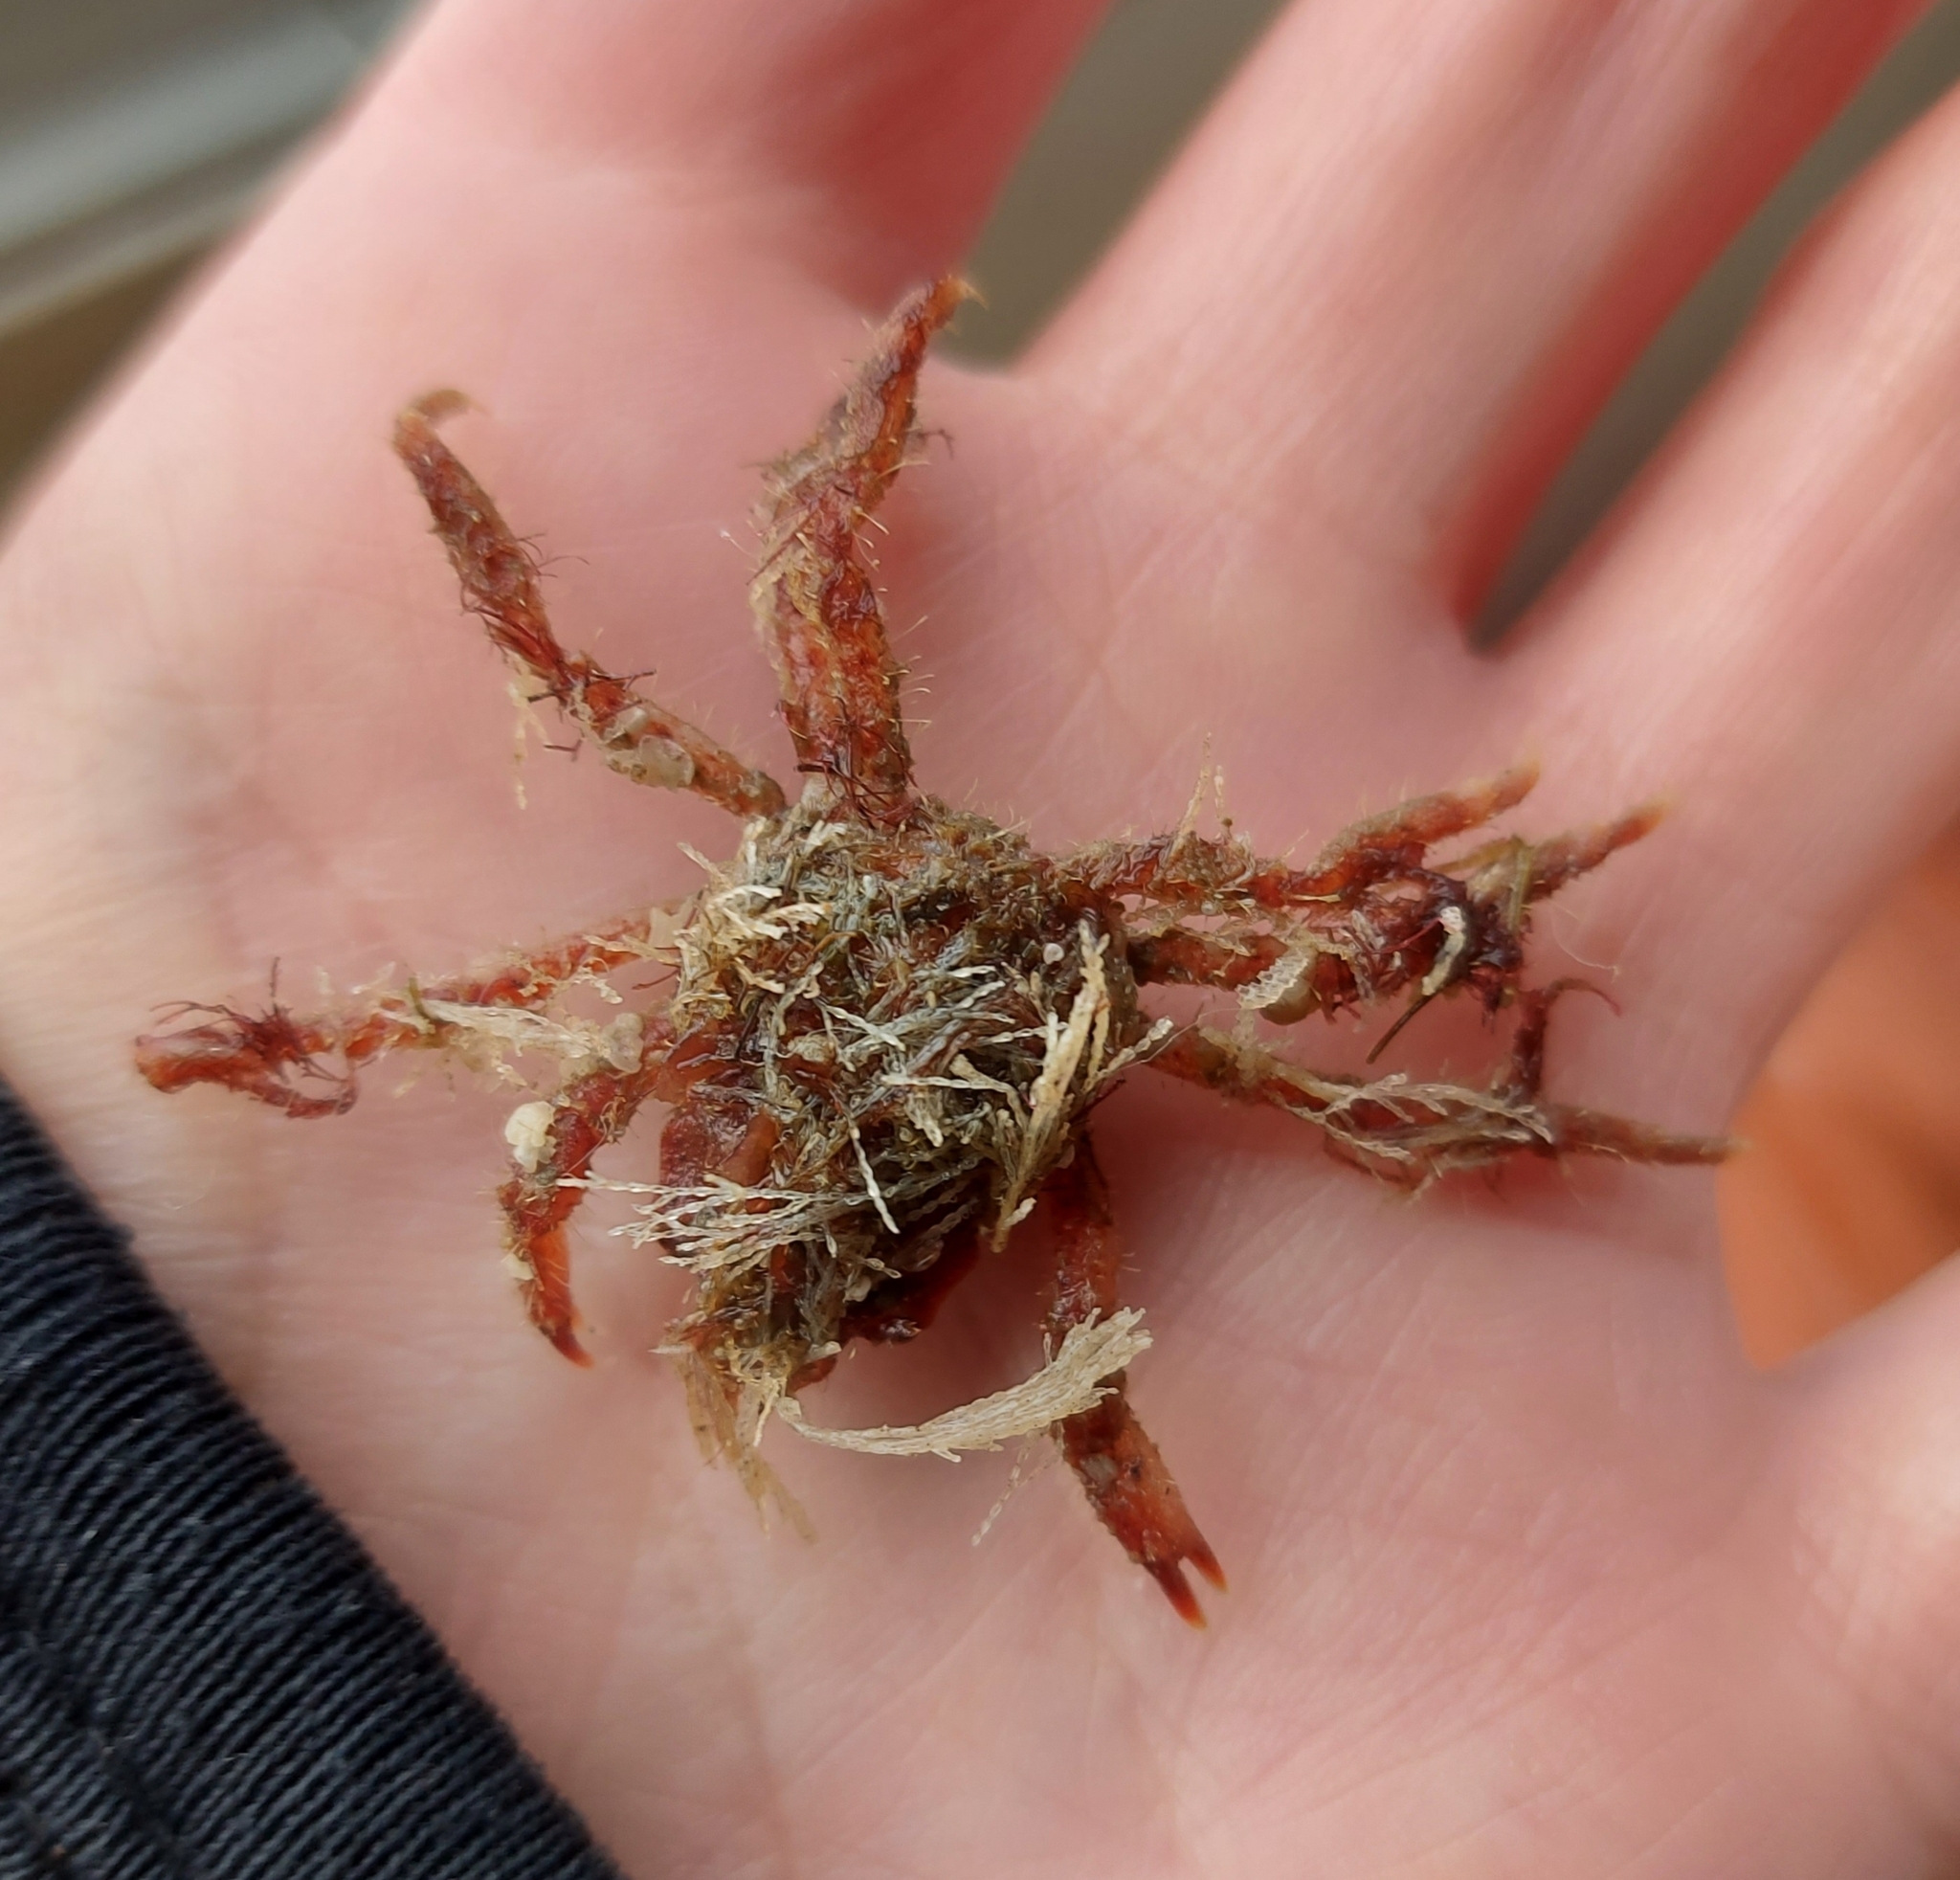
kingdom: Animalia
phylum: Arthropoda
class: Malacostraca
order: Decapoda
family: Oregoniidae
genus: Hyas
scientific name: Hyas coarctatus
